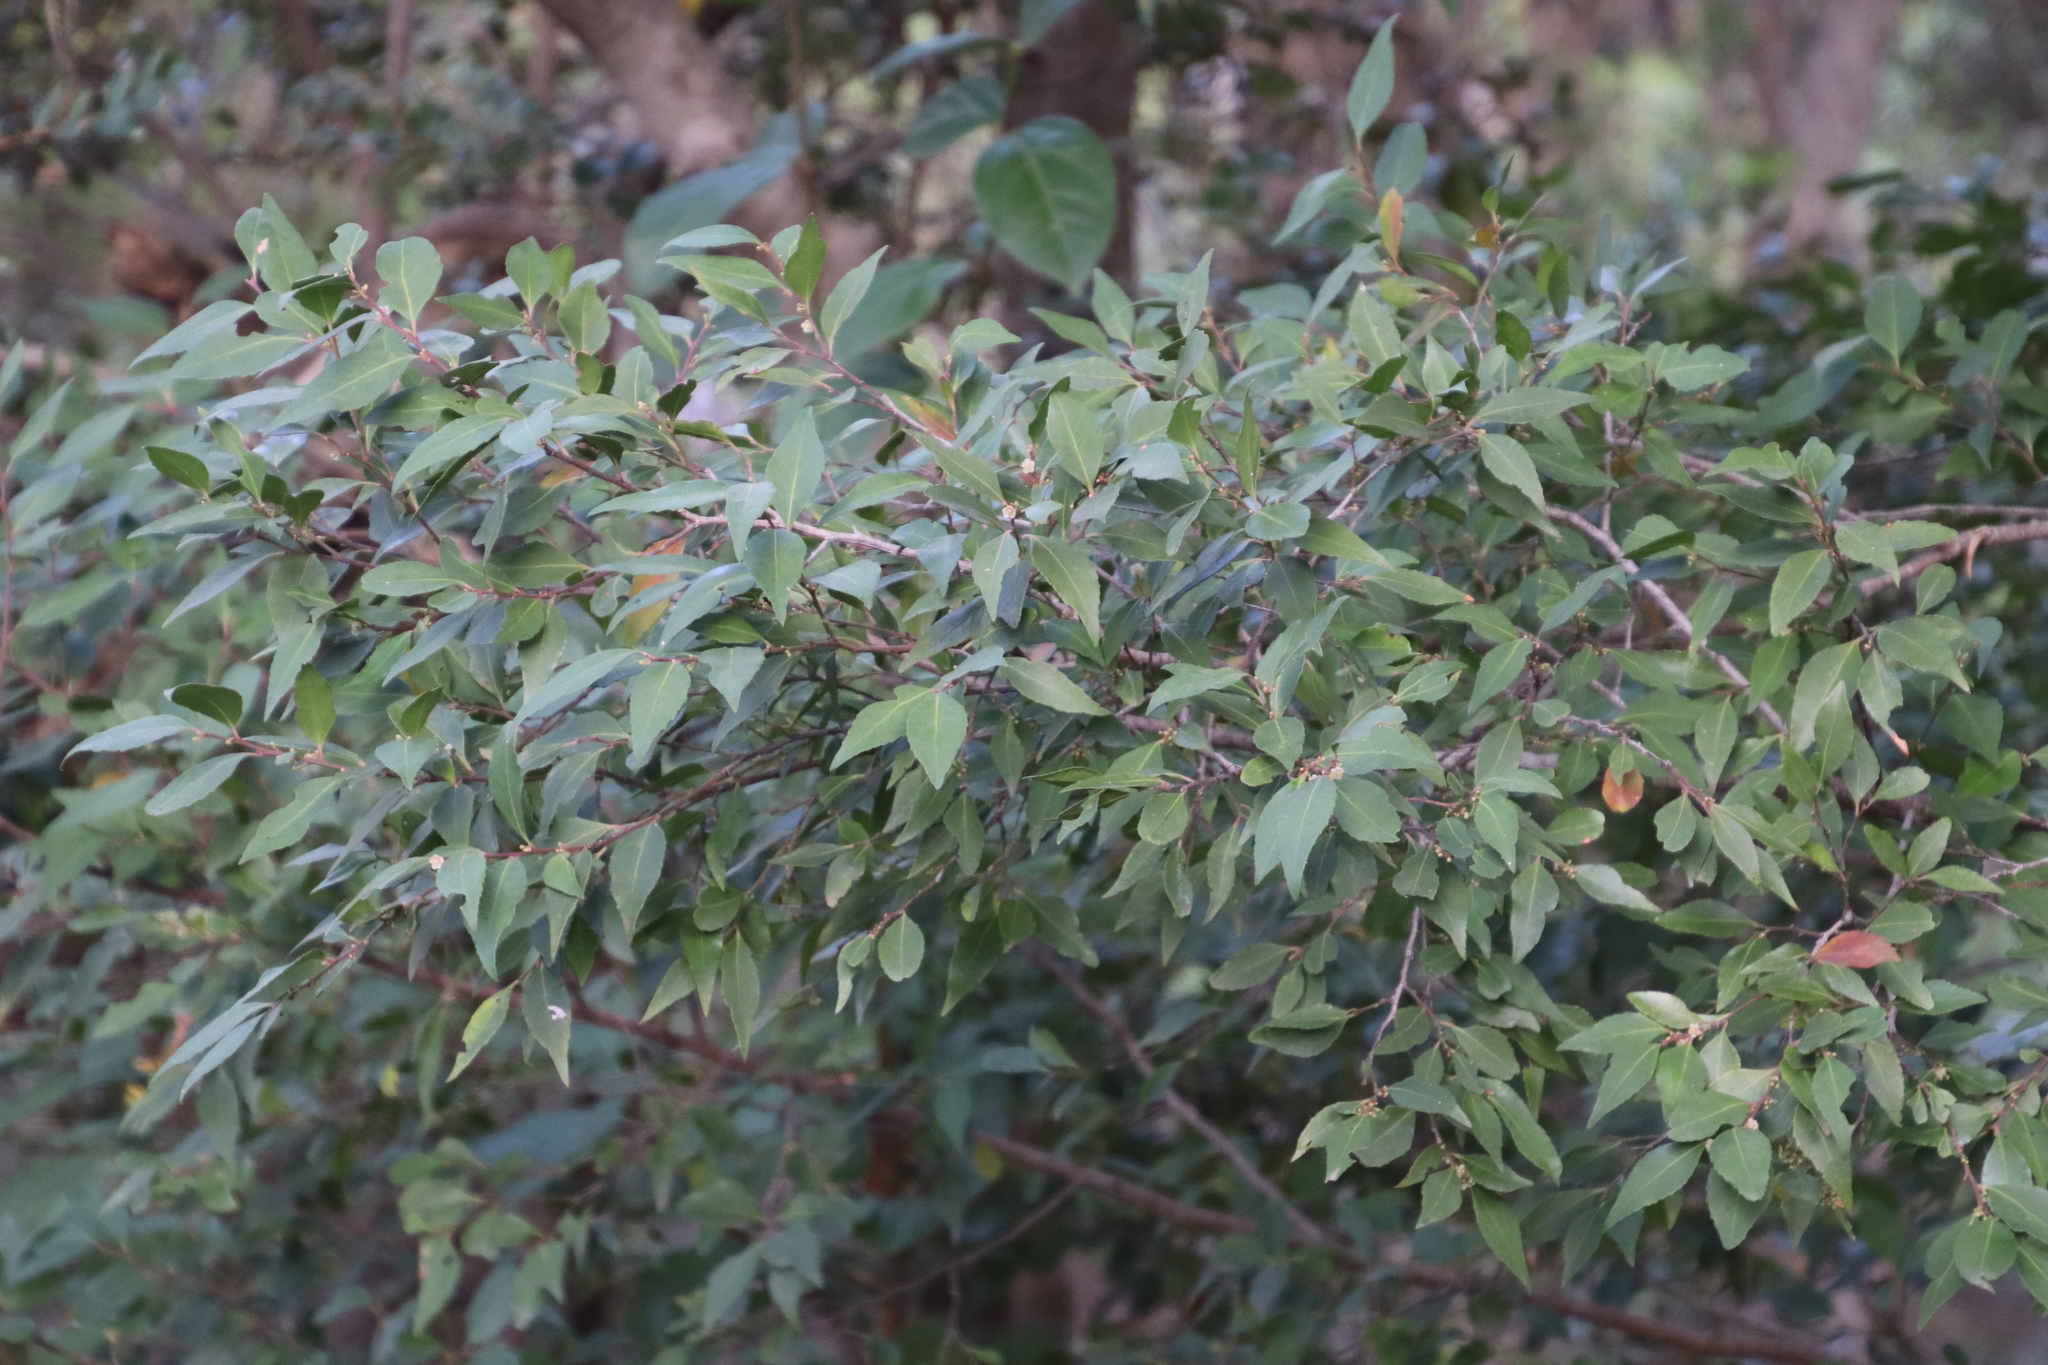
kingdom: Plantae
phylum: Tracheophyta
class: Magnoliopsida
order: Celastrales
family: Celastraceae
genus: Gymnosporia
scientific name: Gymnosporia acuminata
